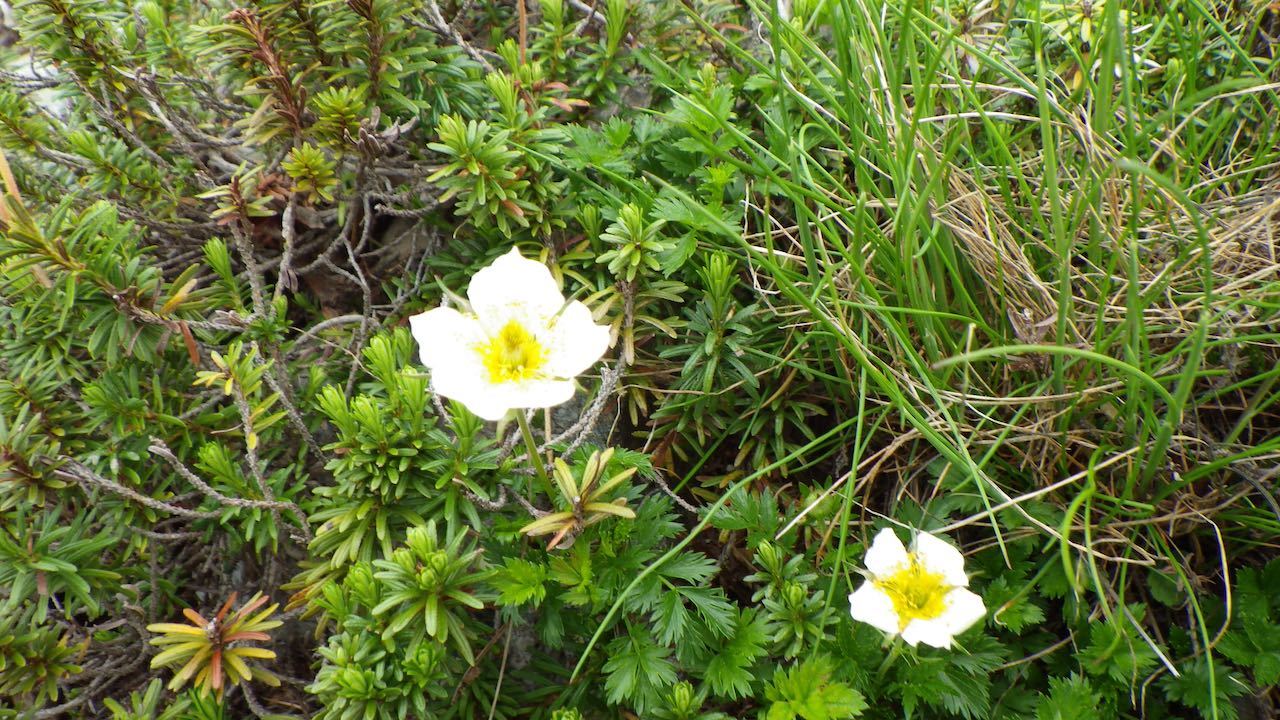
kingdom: Plantae
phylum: Tracheophyta
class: Magnoliopsida
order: Rosales
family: Rosaceae
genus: Geum
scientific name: Geum pentapetalum
